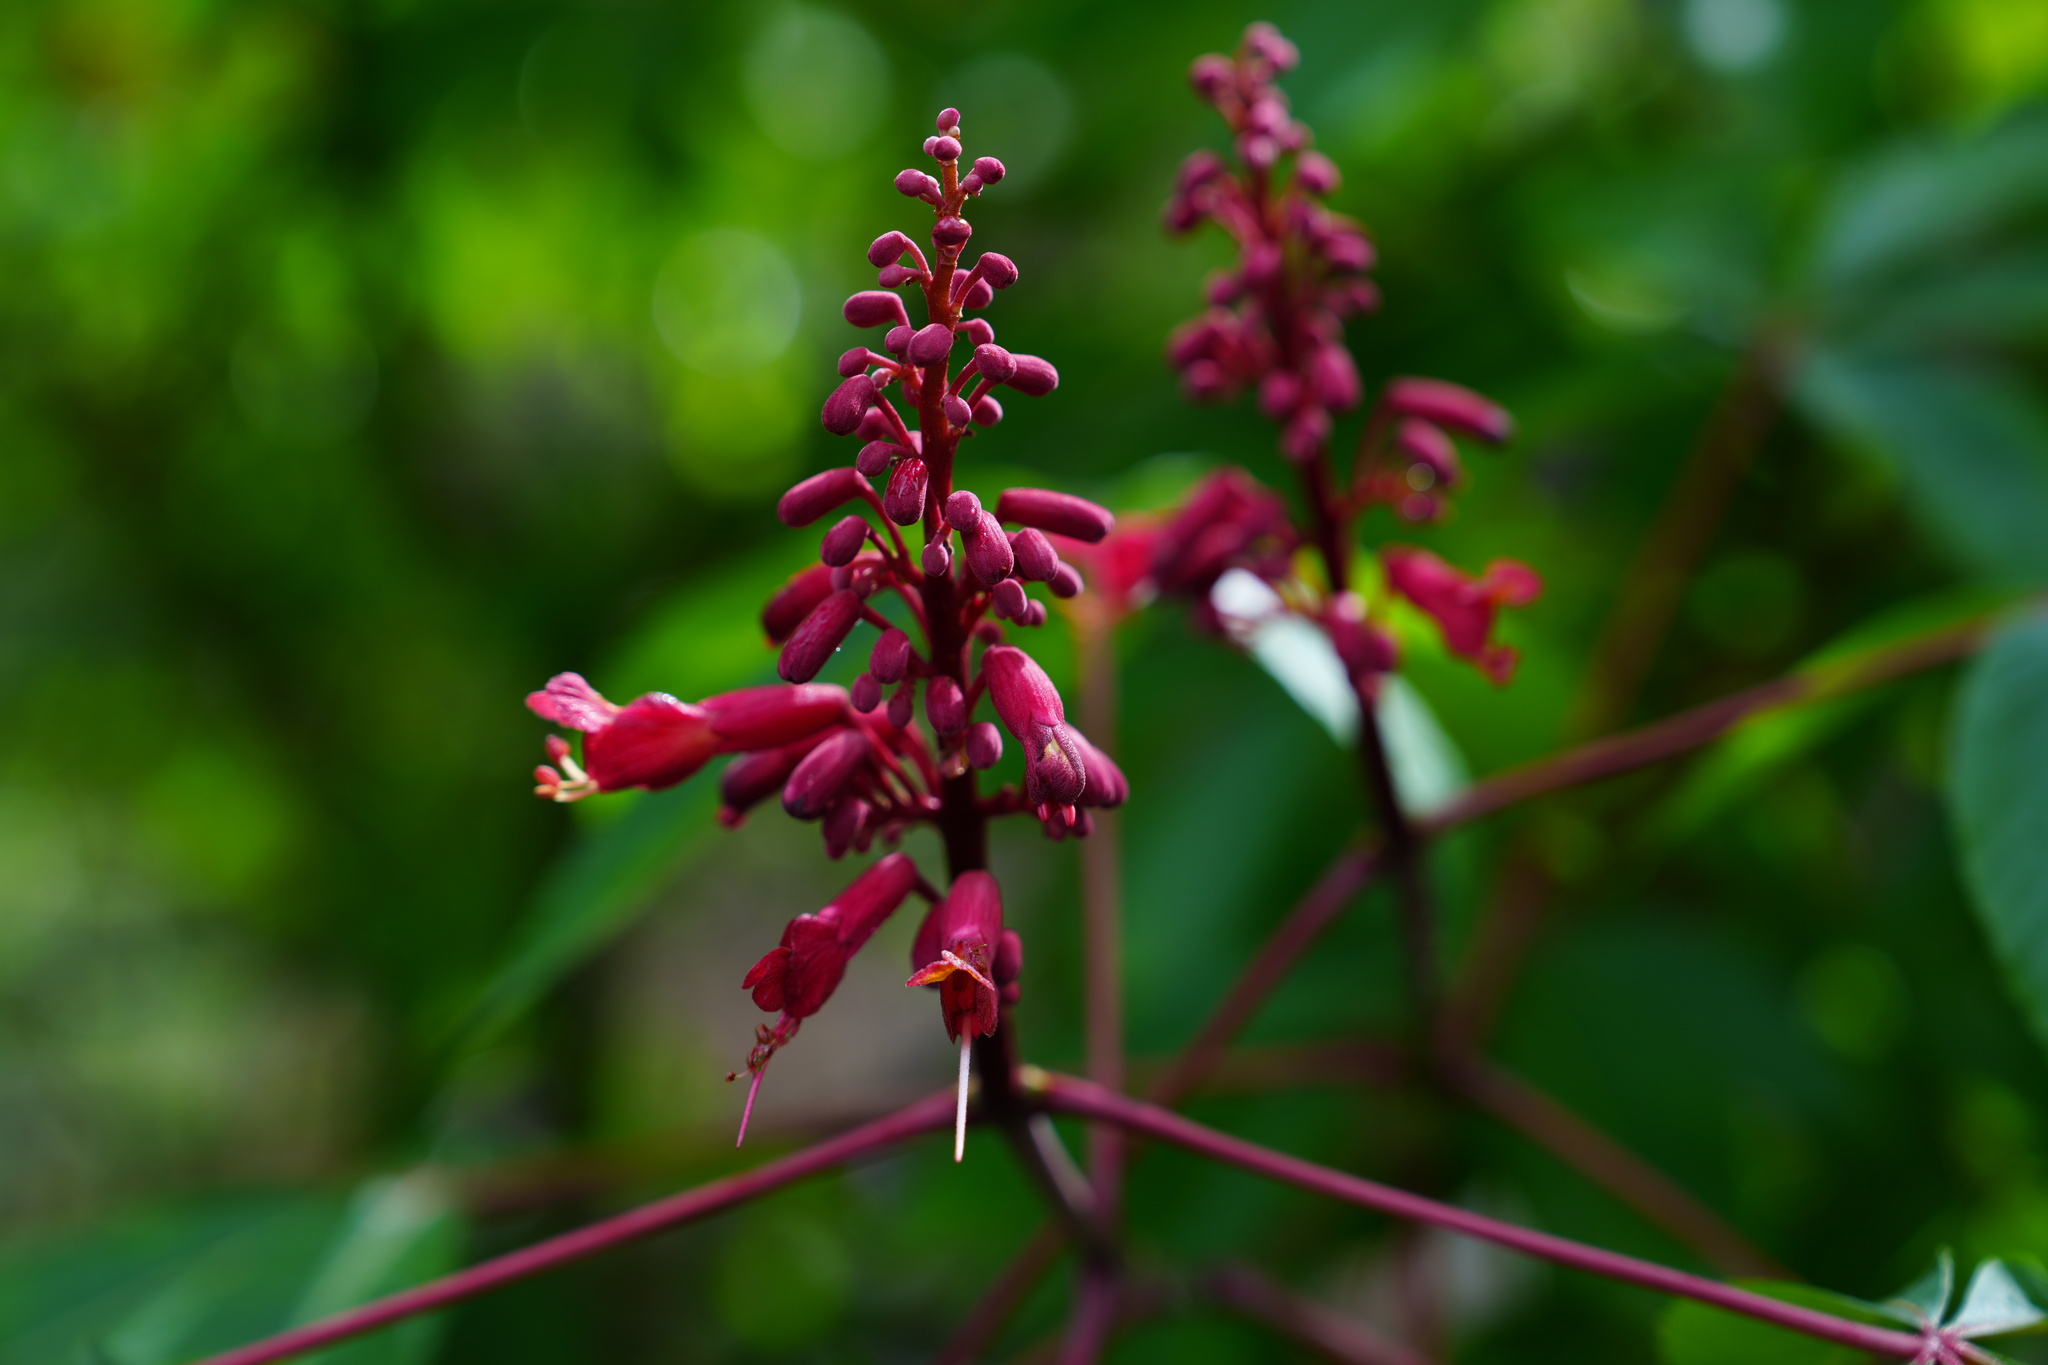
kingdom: Plantae
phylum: Tracheophyta
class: Magnoliopsida
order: Sapindales
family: Sapindaceae
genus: Aesculus
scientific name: Aesculus pavia
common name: Red buckeye
